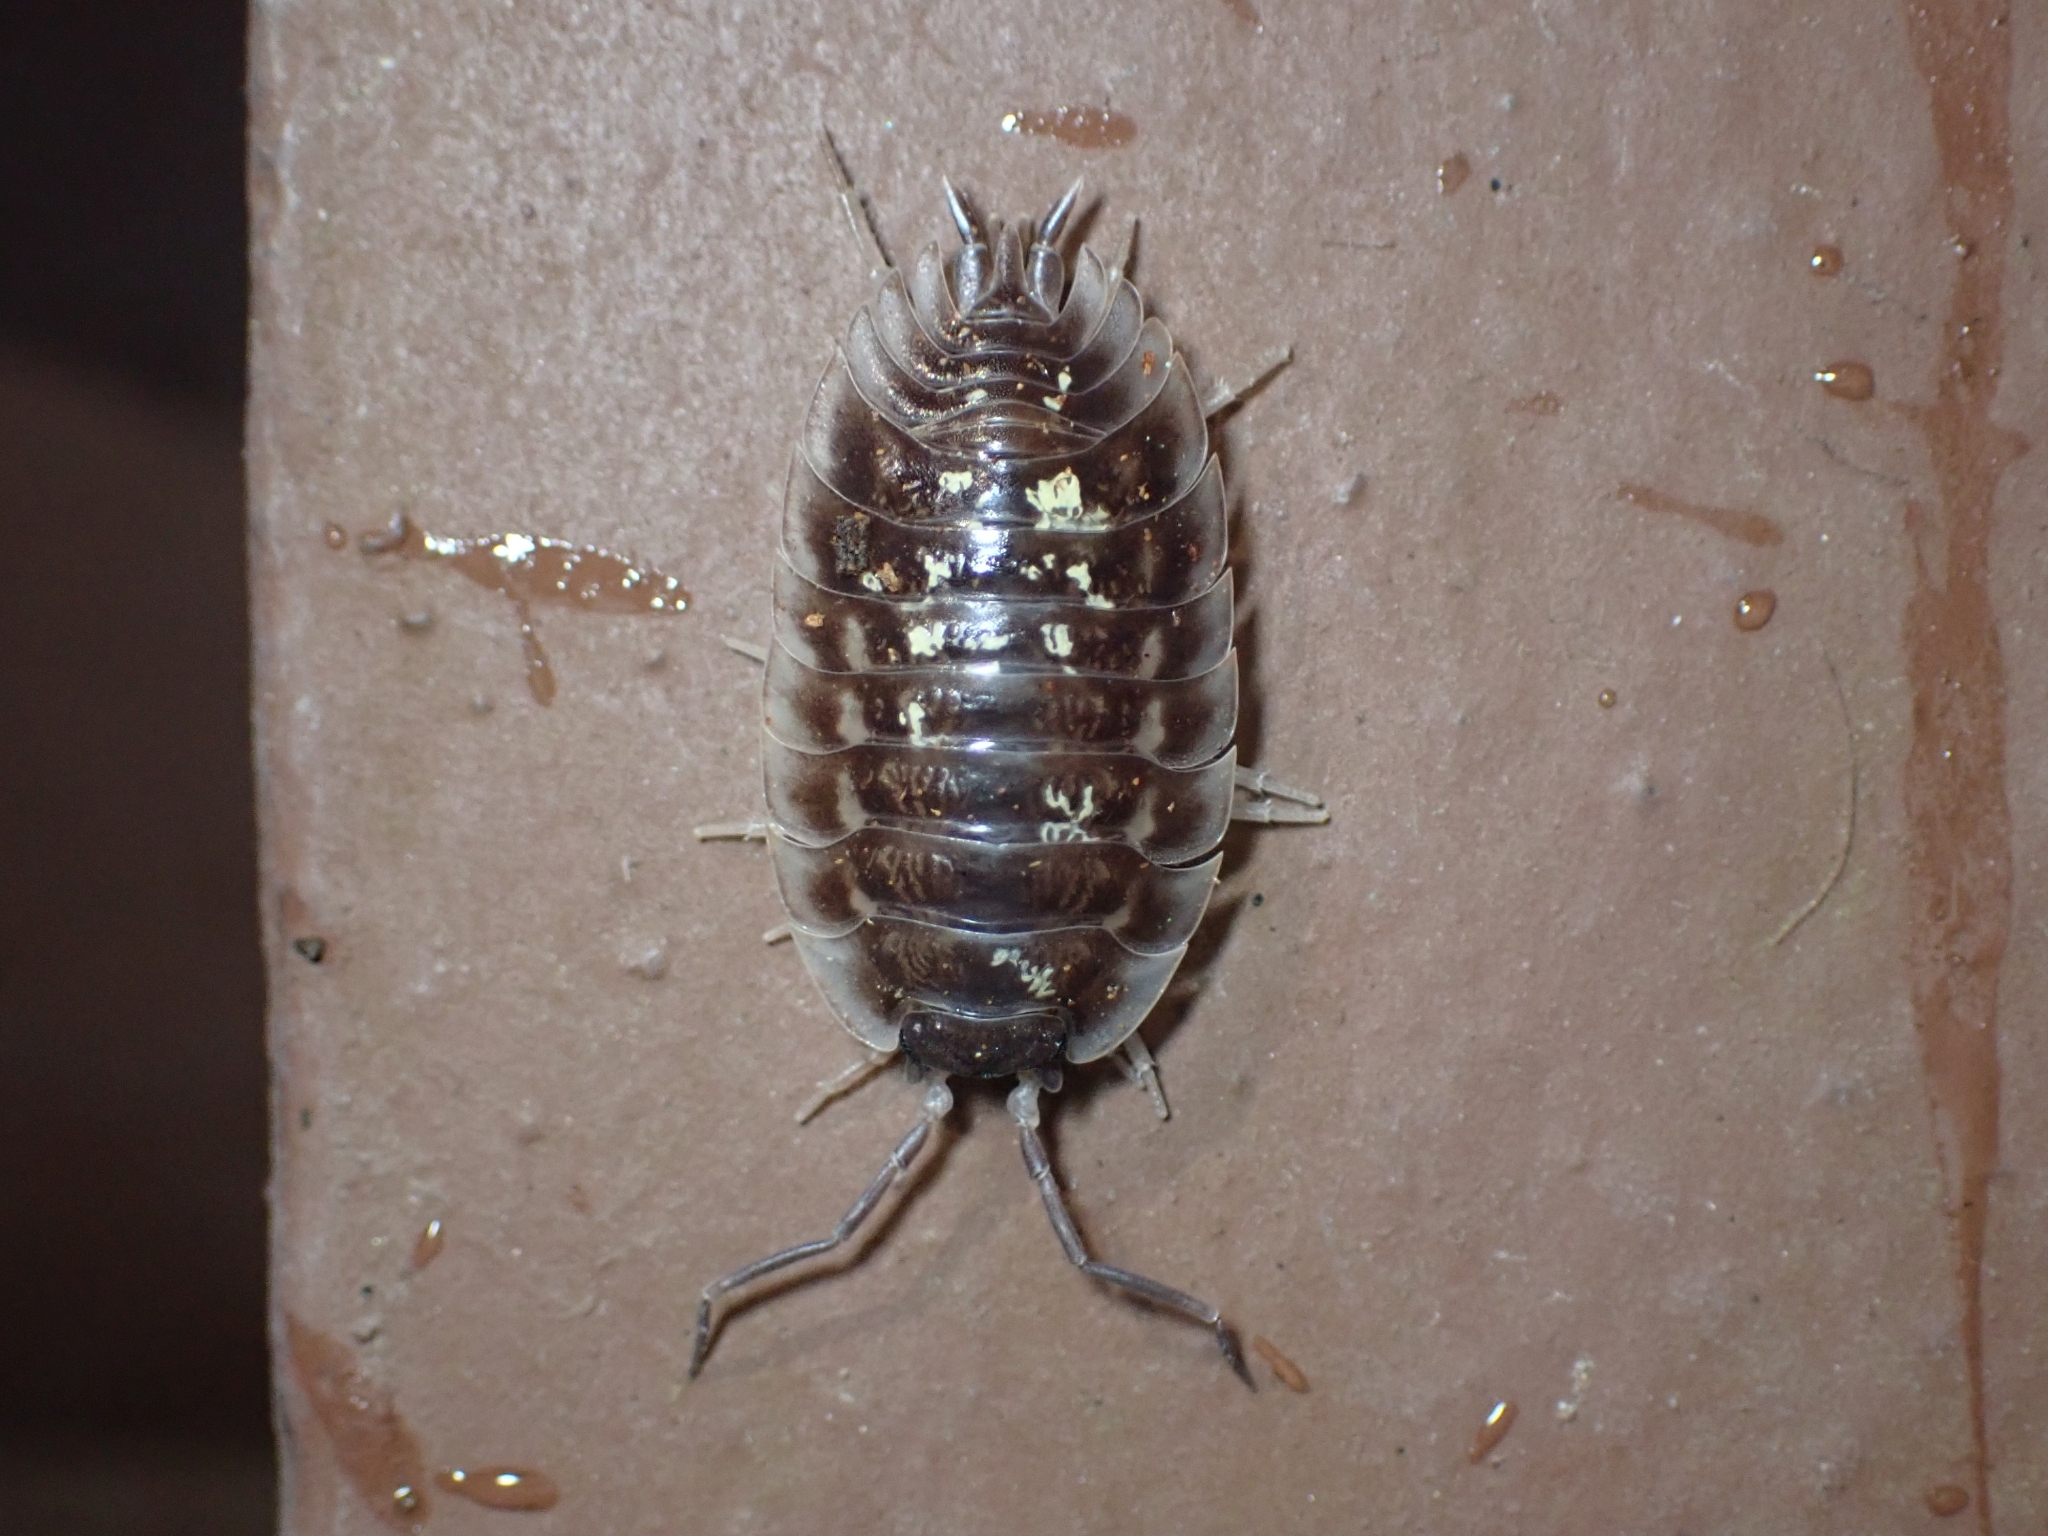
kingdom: Animalia
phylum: Arthropoda
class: Malacostraca
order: Isopoda
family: Oniscidae
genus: Oniscus
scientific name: Oniscus asellus
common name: Common shiny woodlouse
